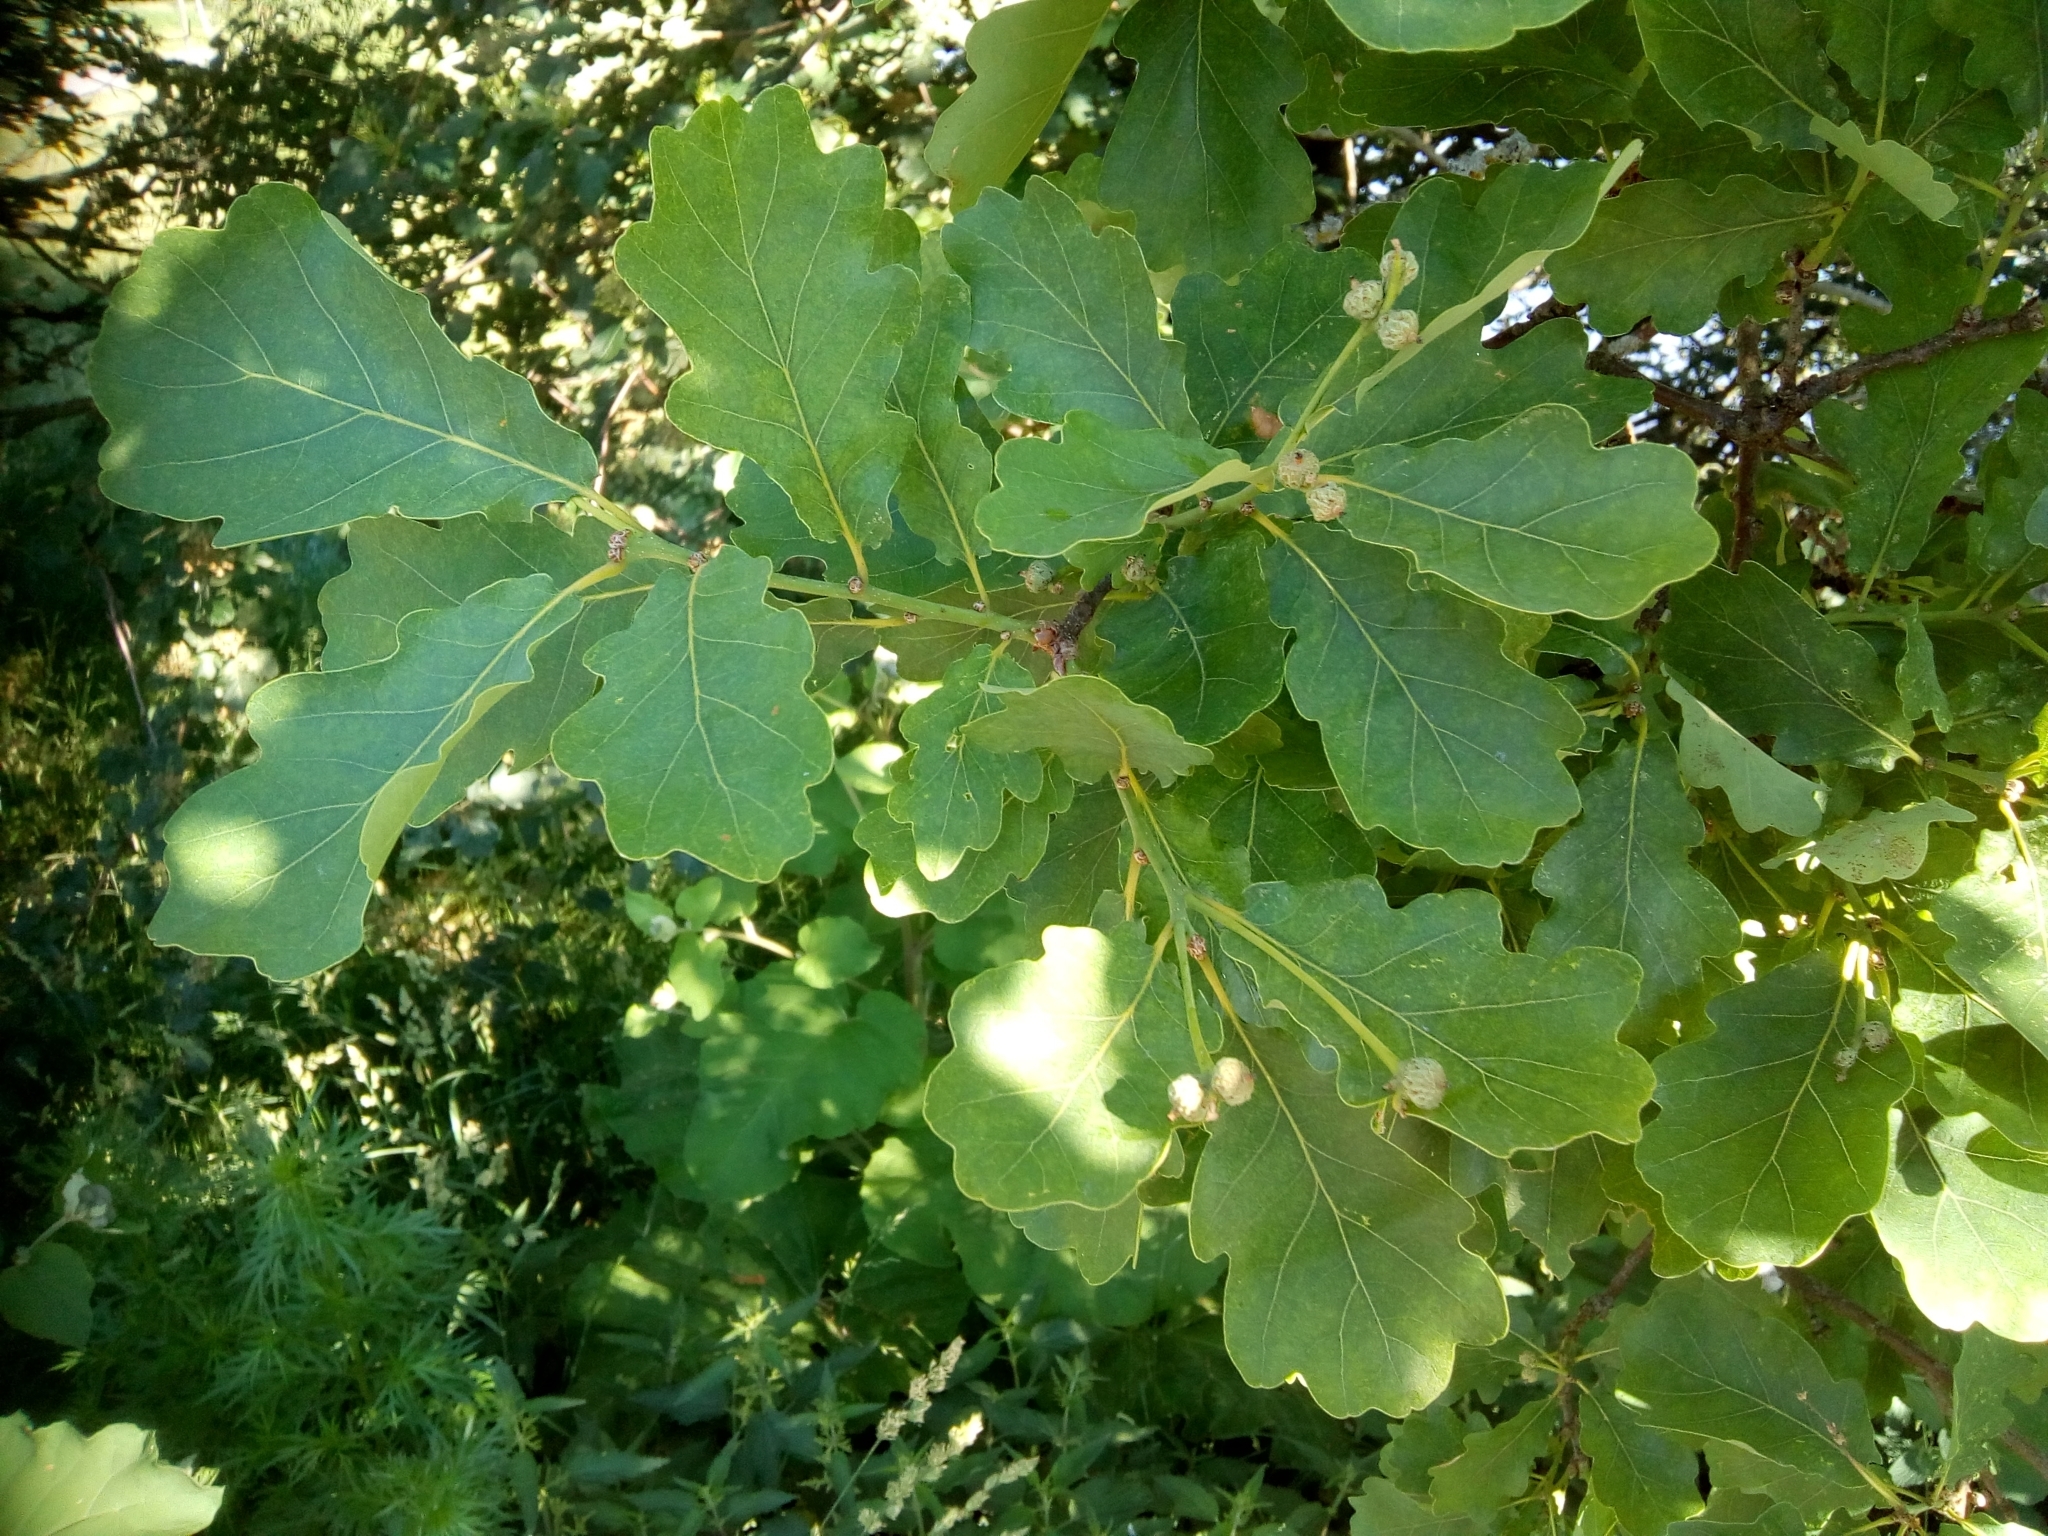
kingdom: Plantae
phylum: Tracheophyta
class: Magnoliopsida
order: Fagales
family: Fagaceae
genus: Quercus
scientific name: Quercus robur
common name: Pedunculate oak
